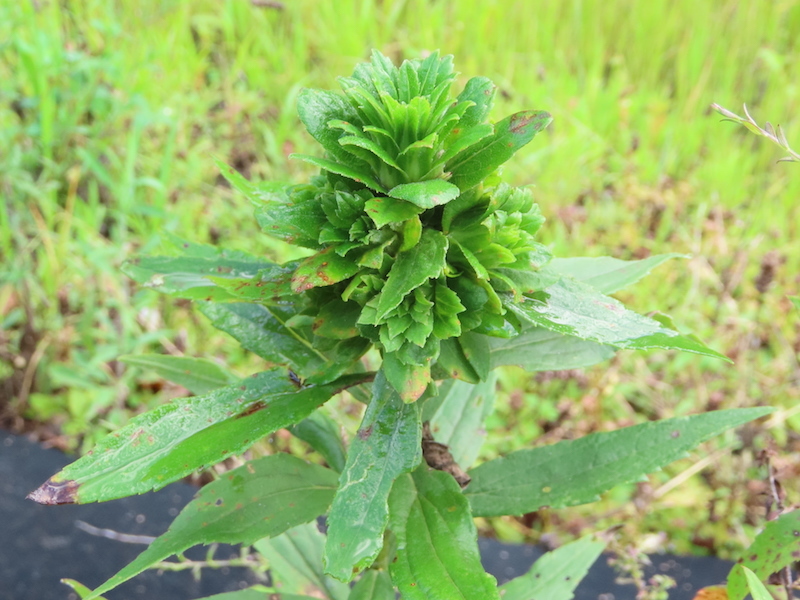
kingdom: Animalia
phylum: Arthropoda
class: Insecta
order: Diptera
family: Tephritidae
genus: Procecidochares
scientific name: Procecidochares atra
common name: Goldenrod brussels sprout gall fly
